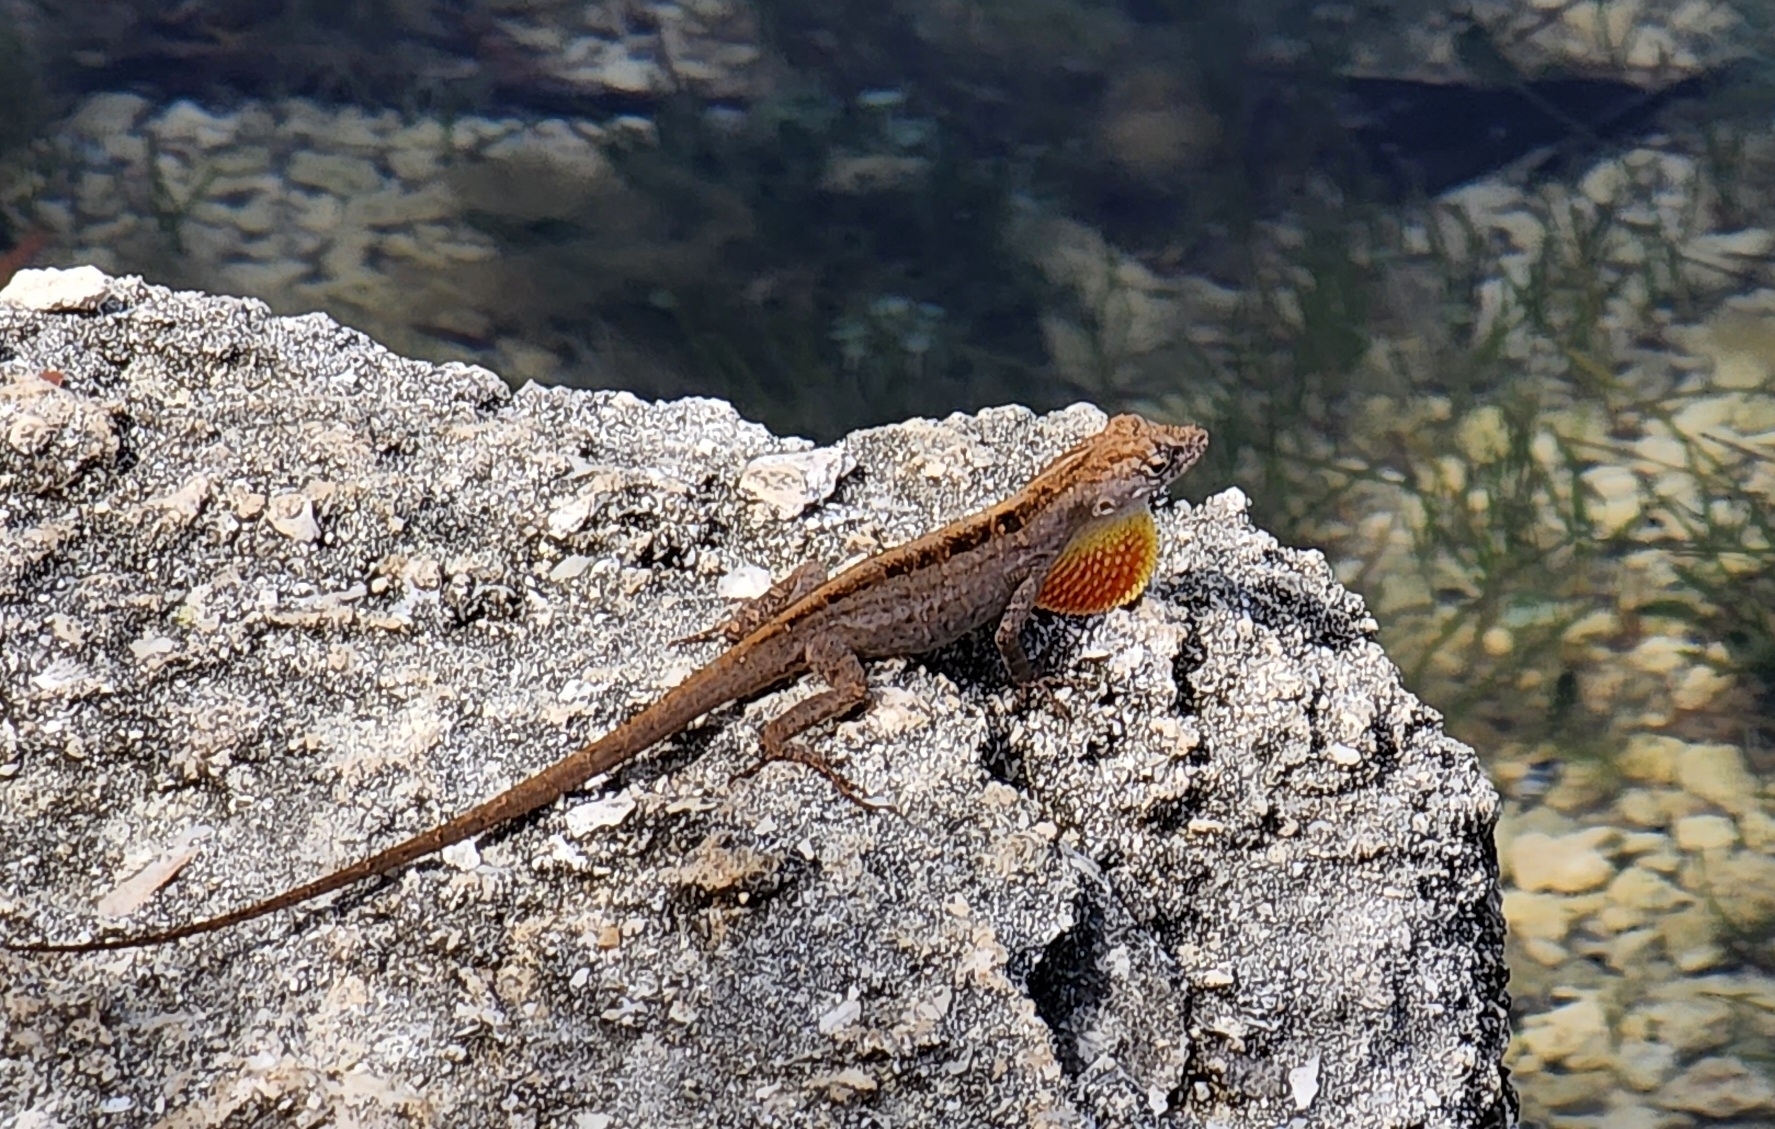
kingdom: Animalia
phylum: Chordata
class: Squamata
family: Dactyloidae
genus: Anolis
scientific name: Anolis sagrei
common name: Brown anole
